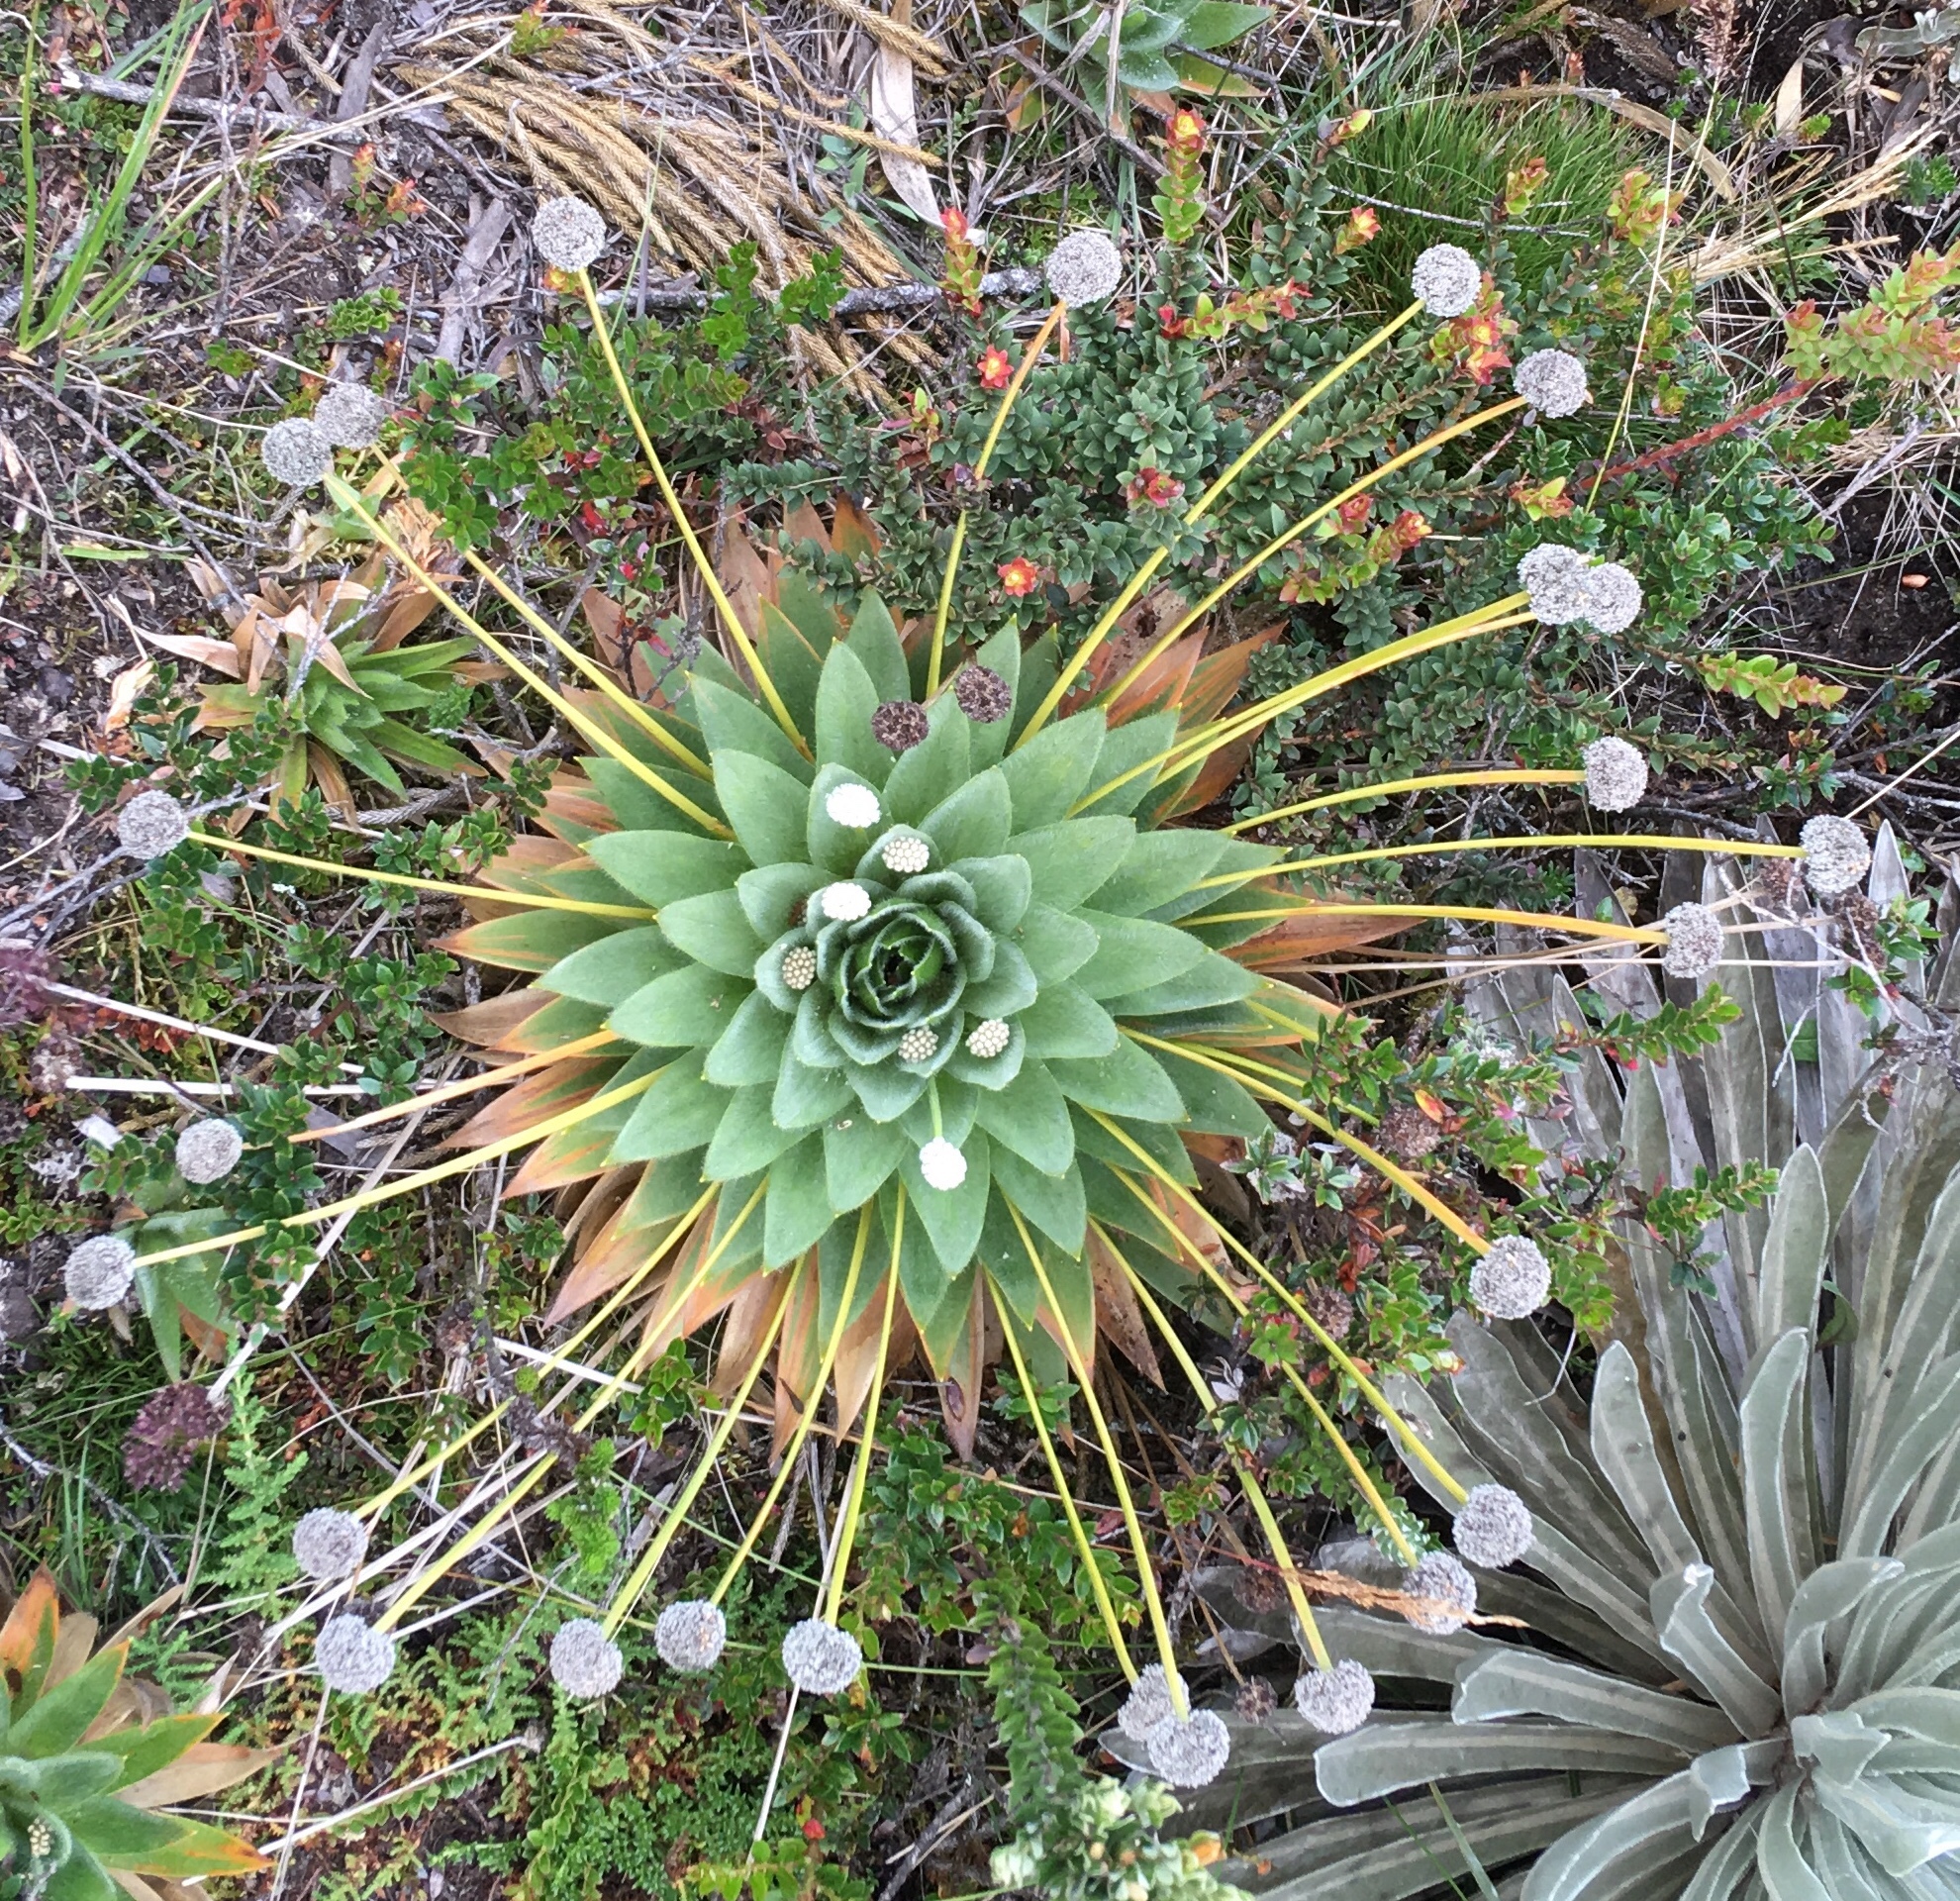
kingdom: Plantae
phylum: Tracheophyta
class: Liliopsida
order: Poales
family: Eriocaulaceae
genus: Paepalanthus
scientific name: Paepalanthus alpinus
